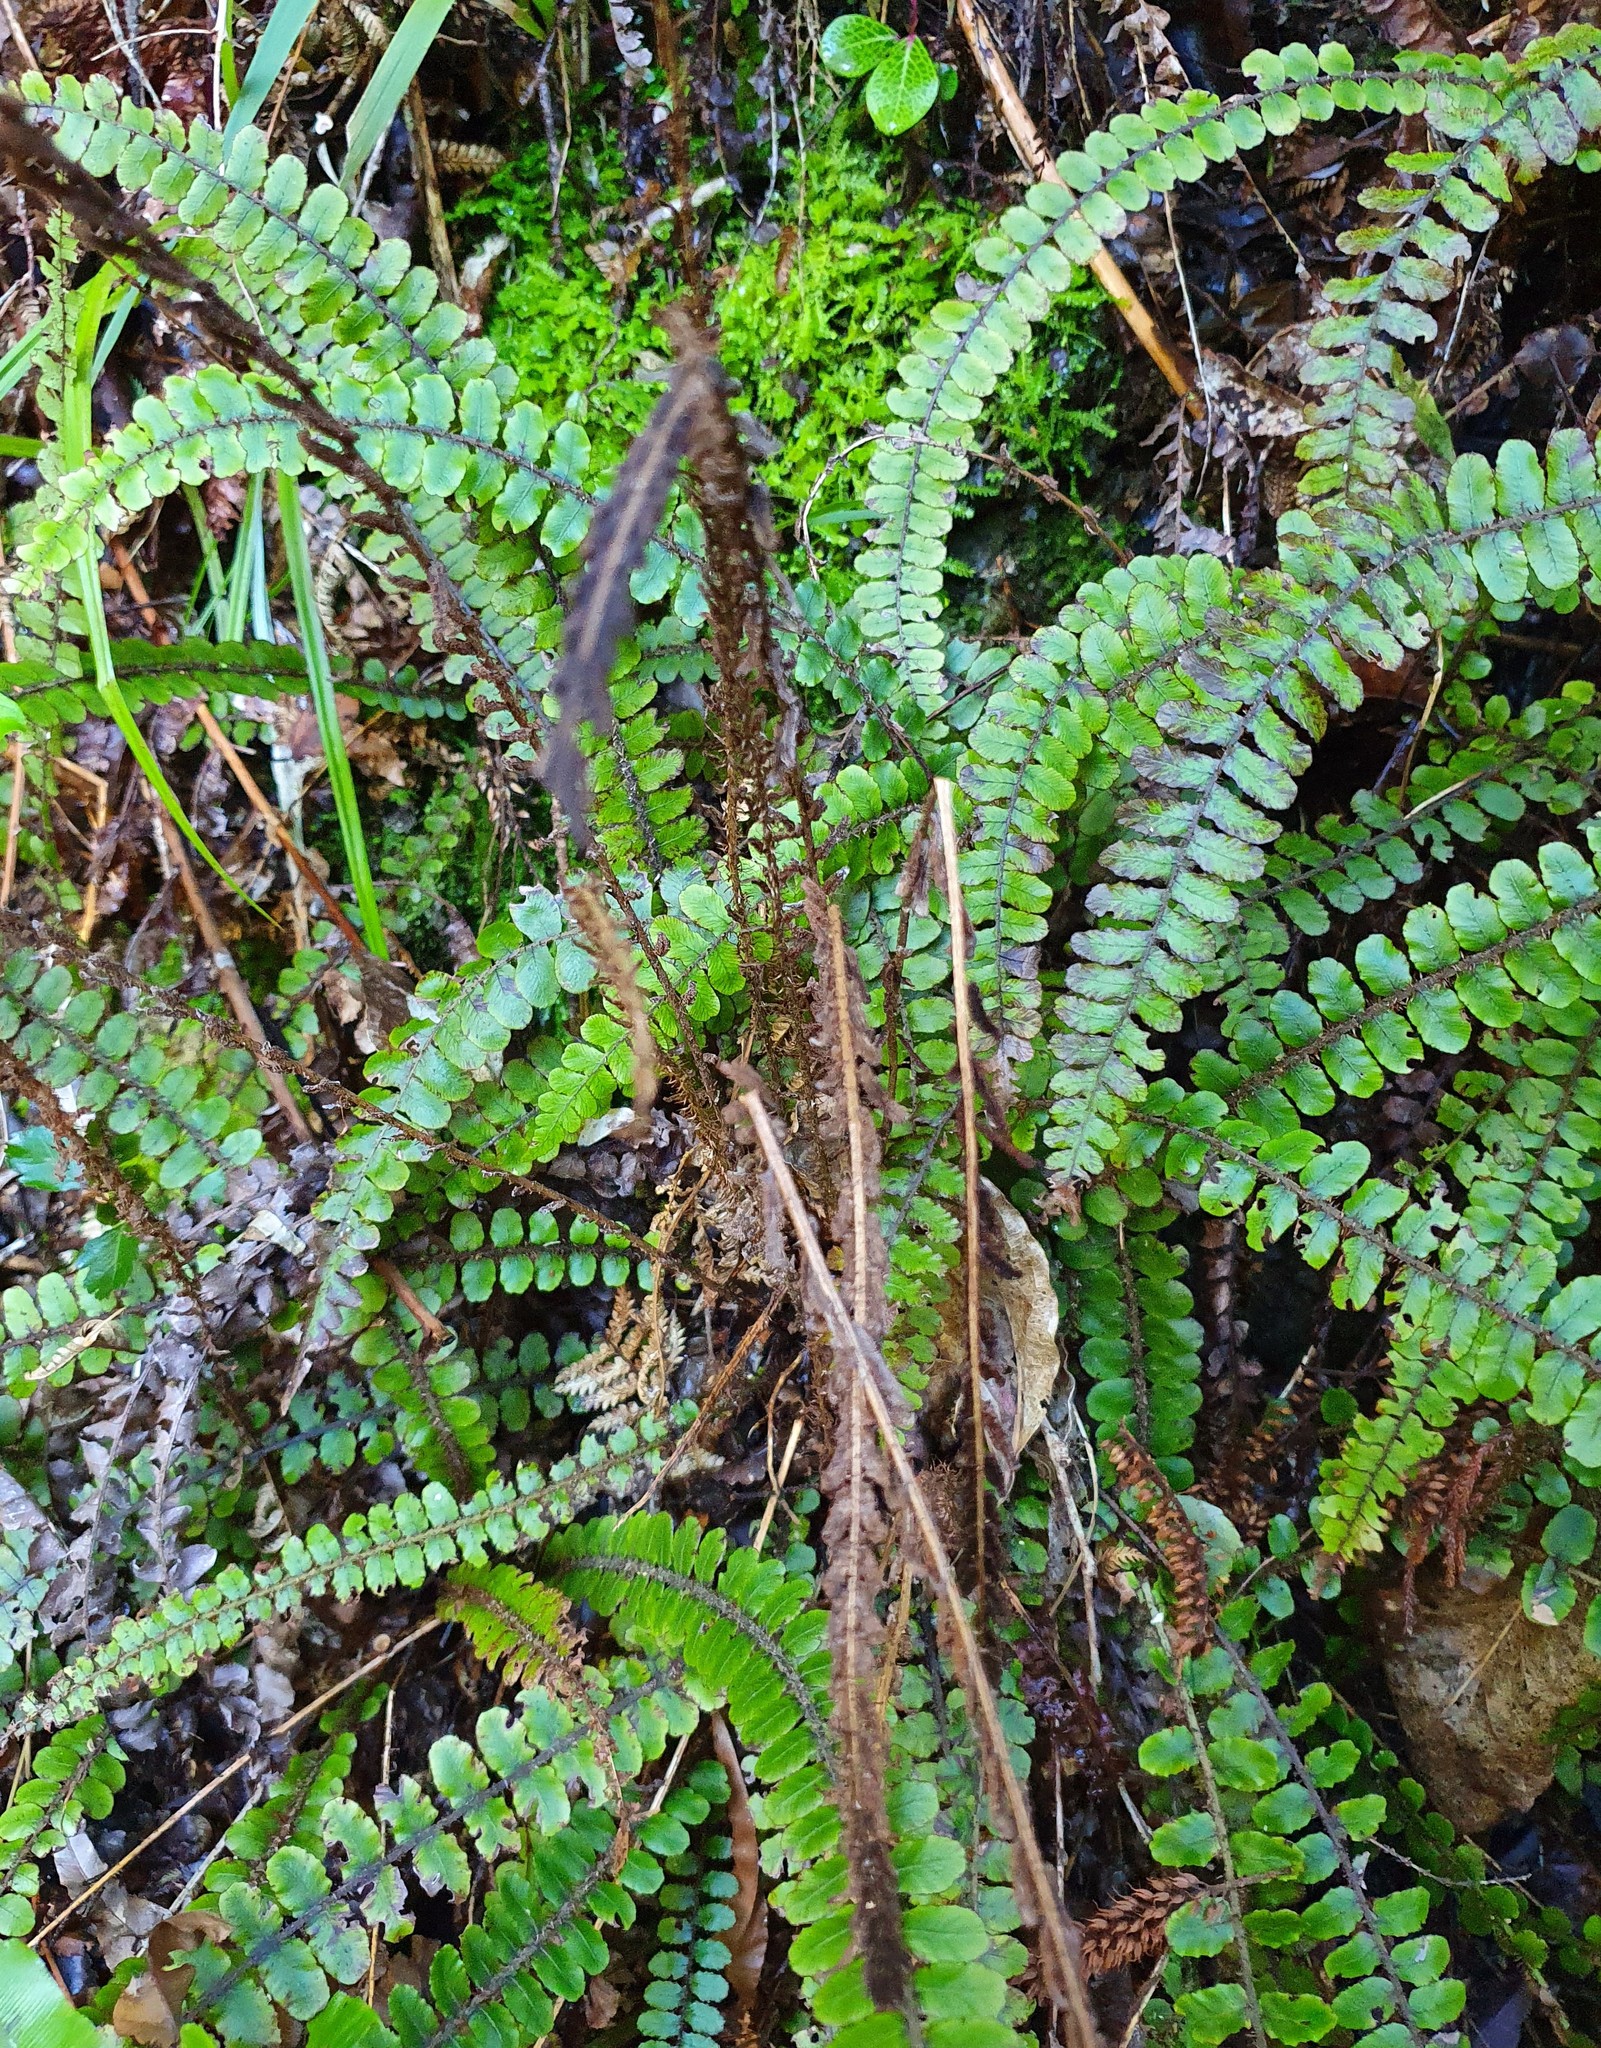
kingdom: Plantae
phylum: Tracheophyta
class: Polypodiopsida
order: Polypodiales
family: Blechnaceae
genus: Cranfillia
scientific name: Cranfillia fluviatilis
